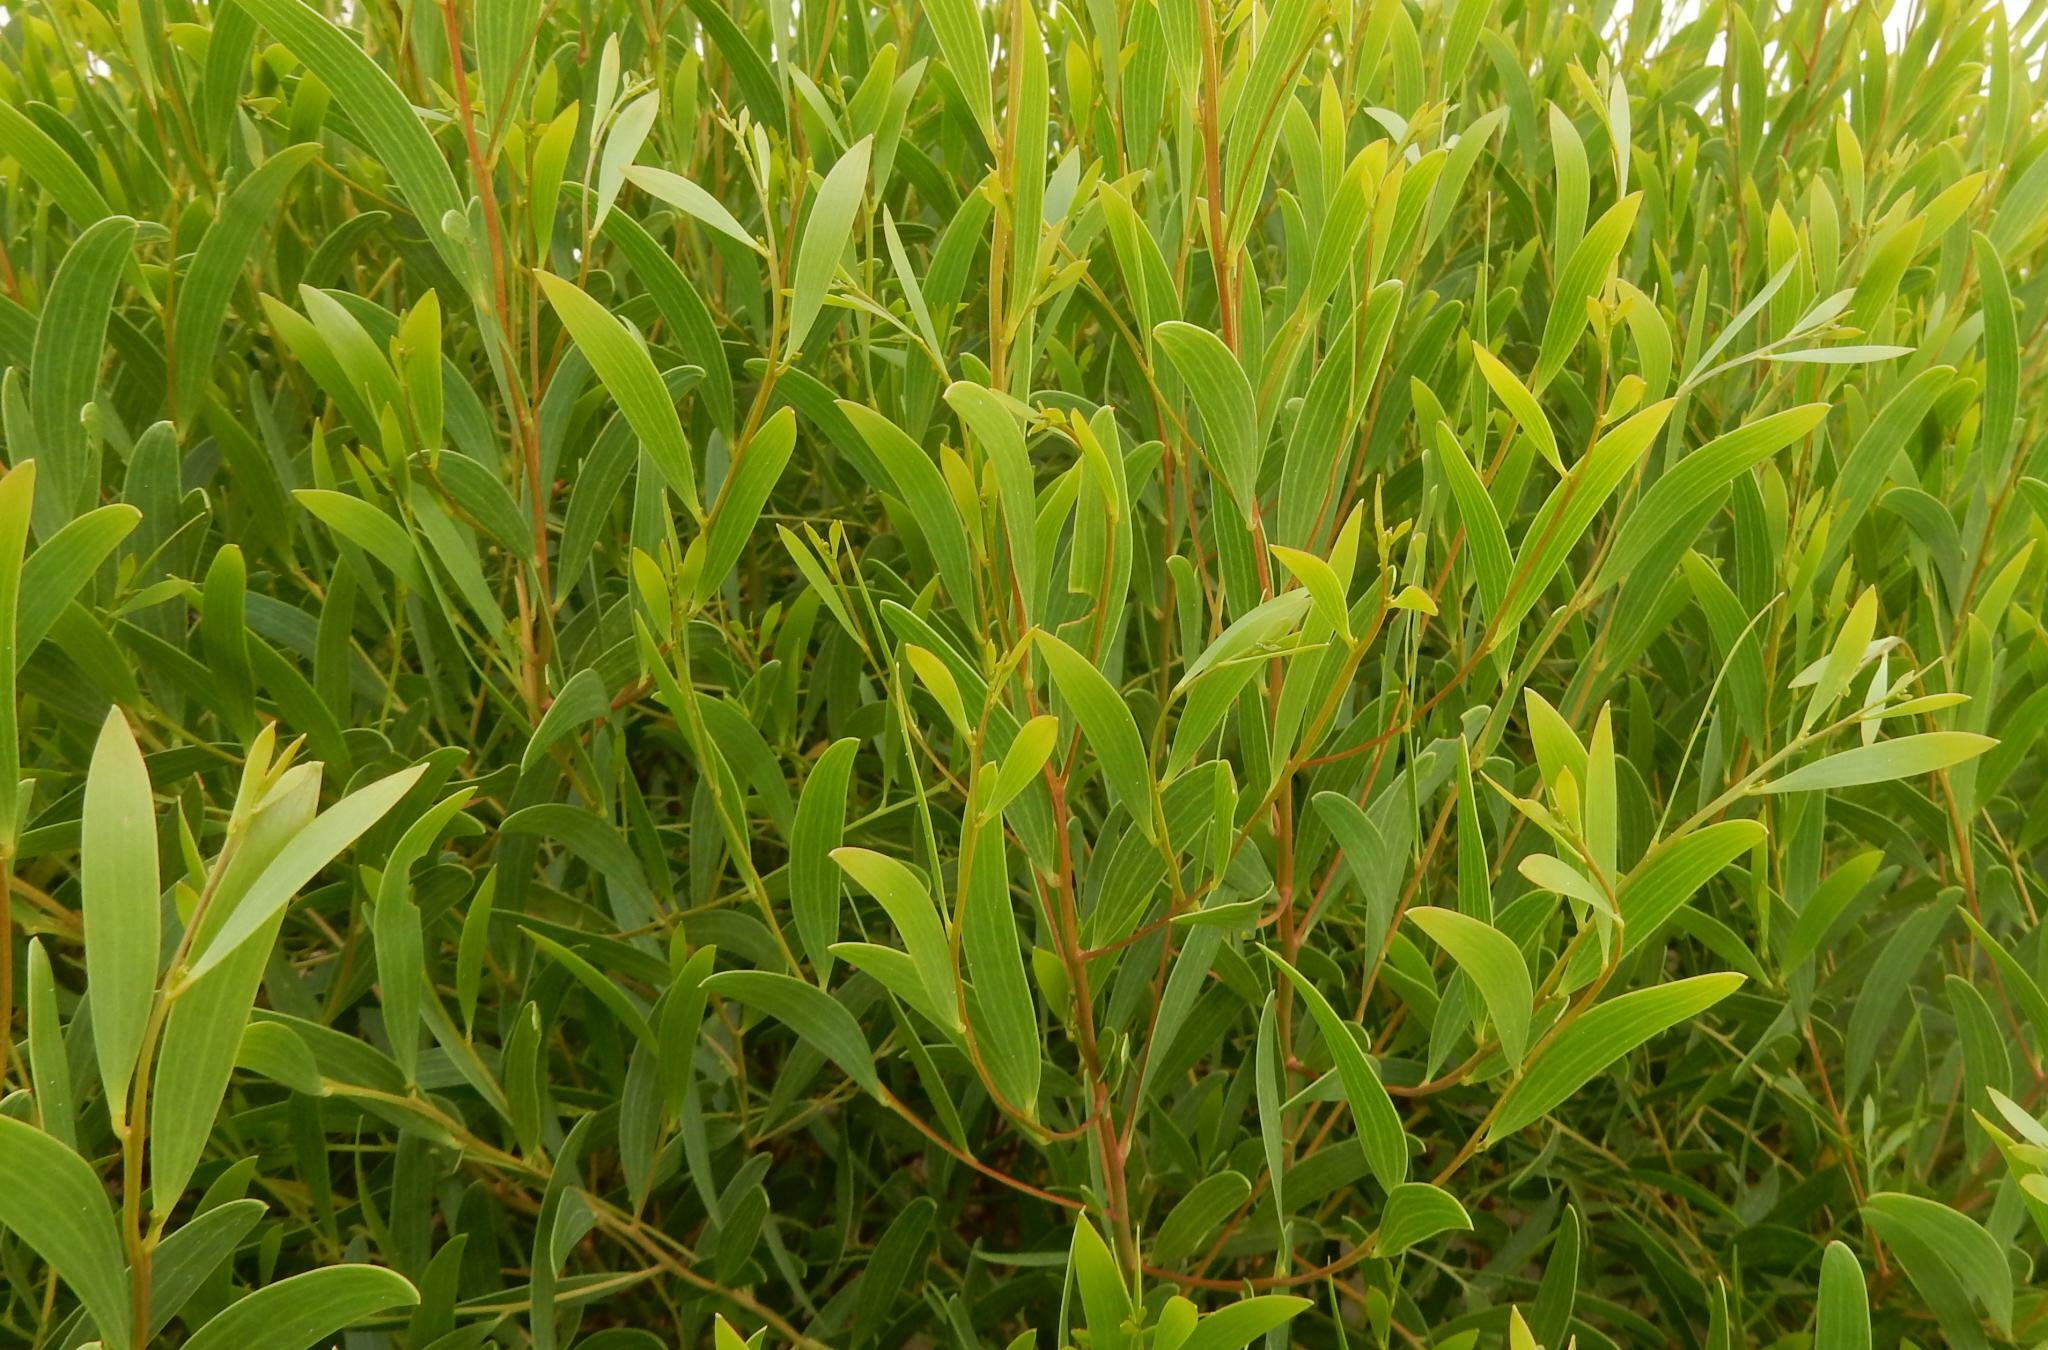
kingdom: Plantae
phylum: Tracheophyta
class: Magnoliopsida
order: Fabales
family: Fabaceae
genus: Acacia
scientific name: Acacia cyclops
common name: Coastal wattle
